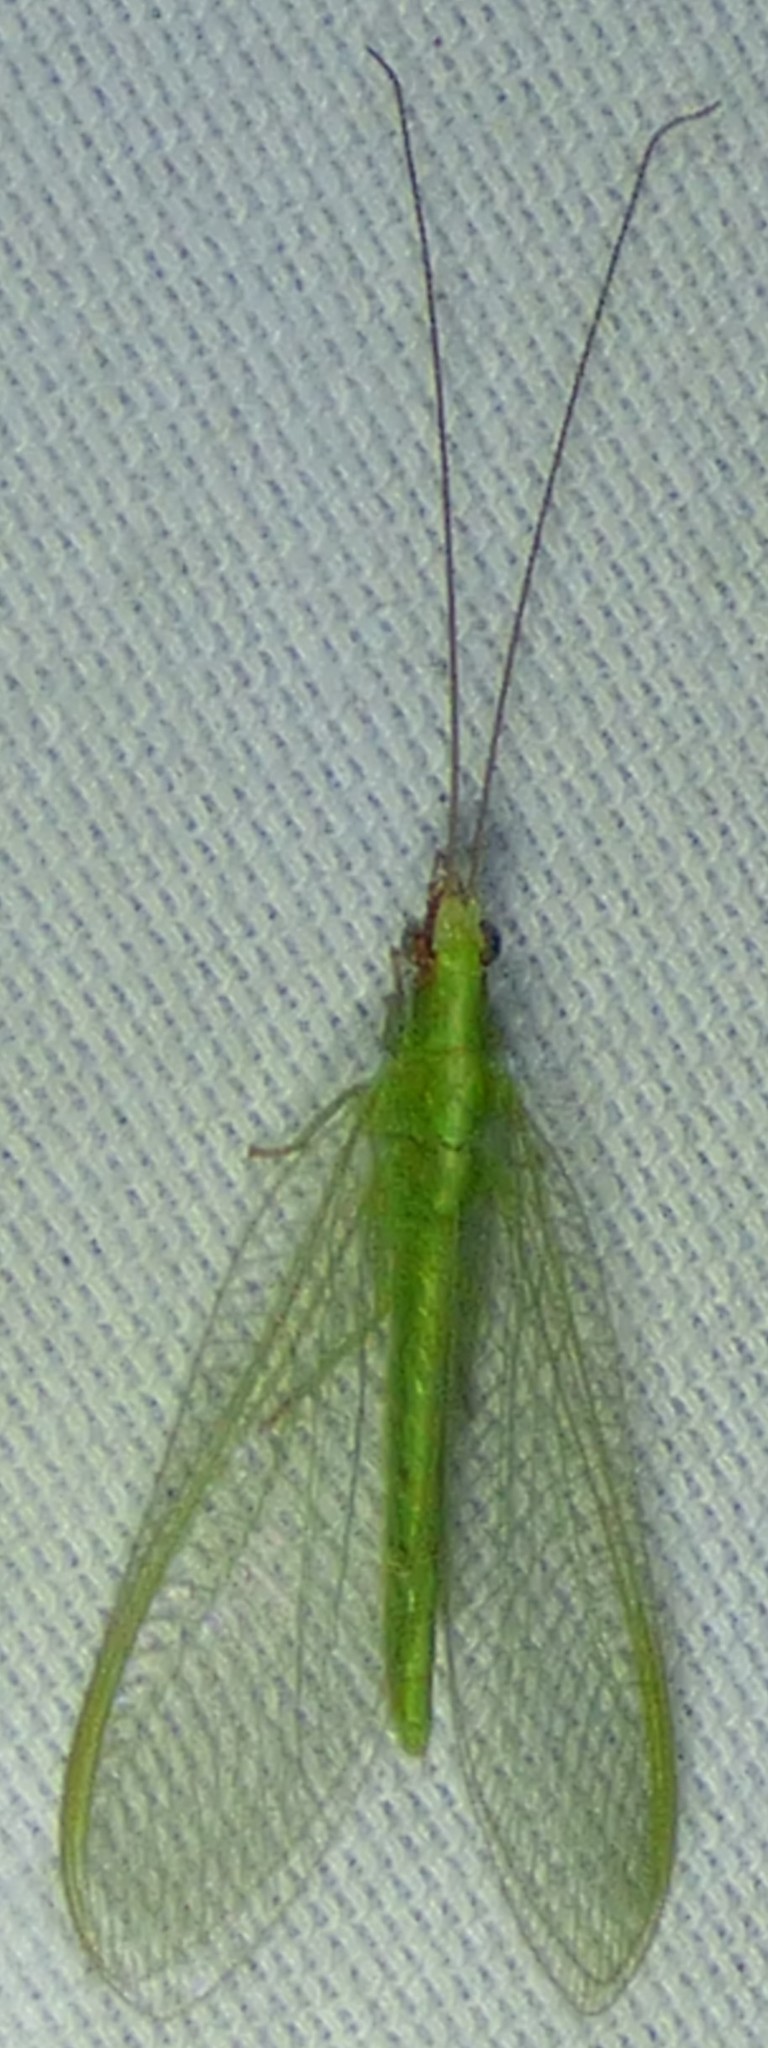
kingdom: Animalia
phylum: Arthropoda
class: Insecta
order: Neuroptera
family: Chrysopidae
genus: Chrysoperla
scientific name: Chrysoperla
